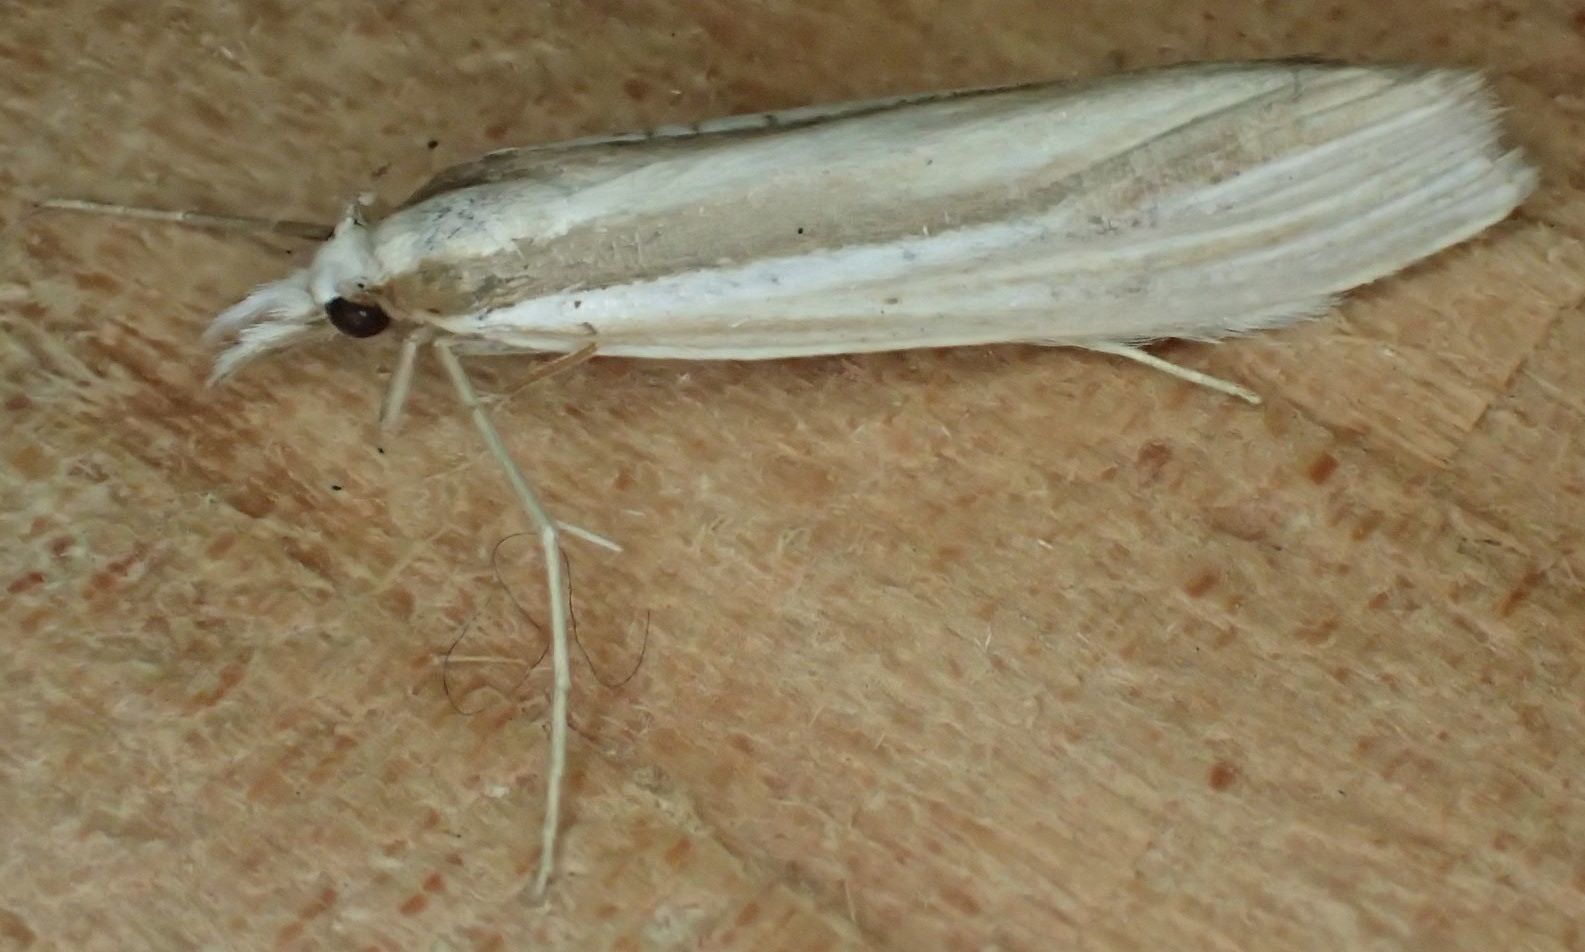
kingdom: Animalia
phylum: Arthropoda
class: Insecta
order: Lepidoptera
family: Crambidae
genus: Orocrambus
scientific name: Orocrambus ramosellus
